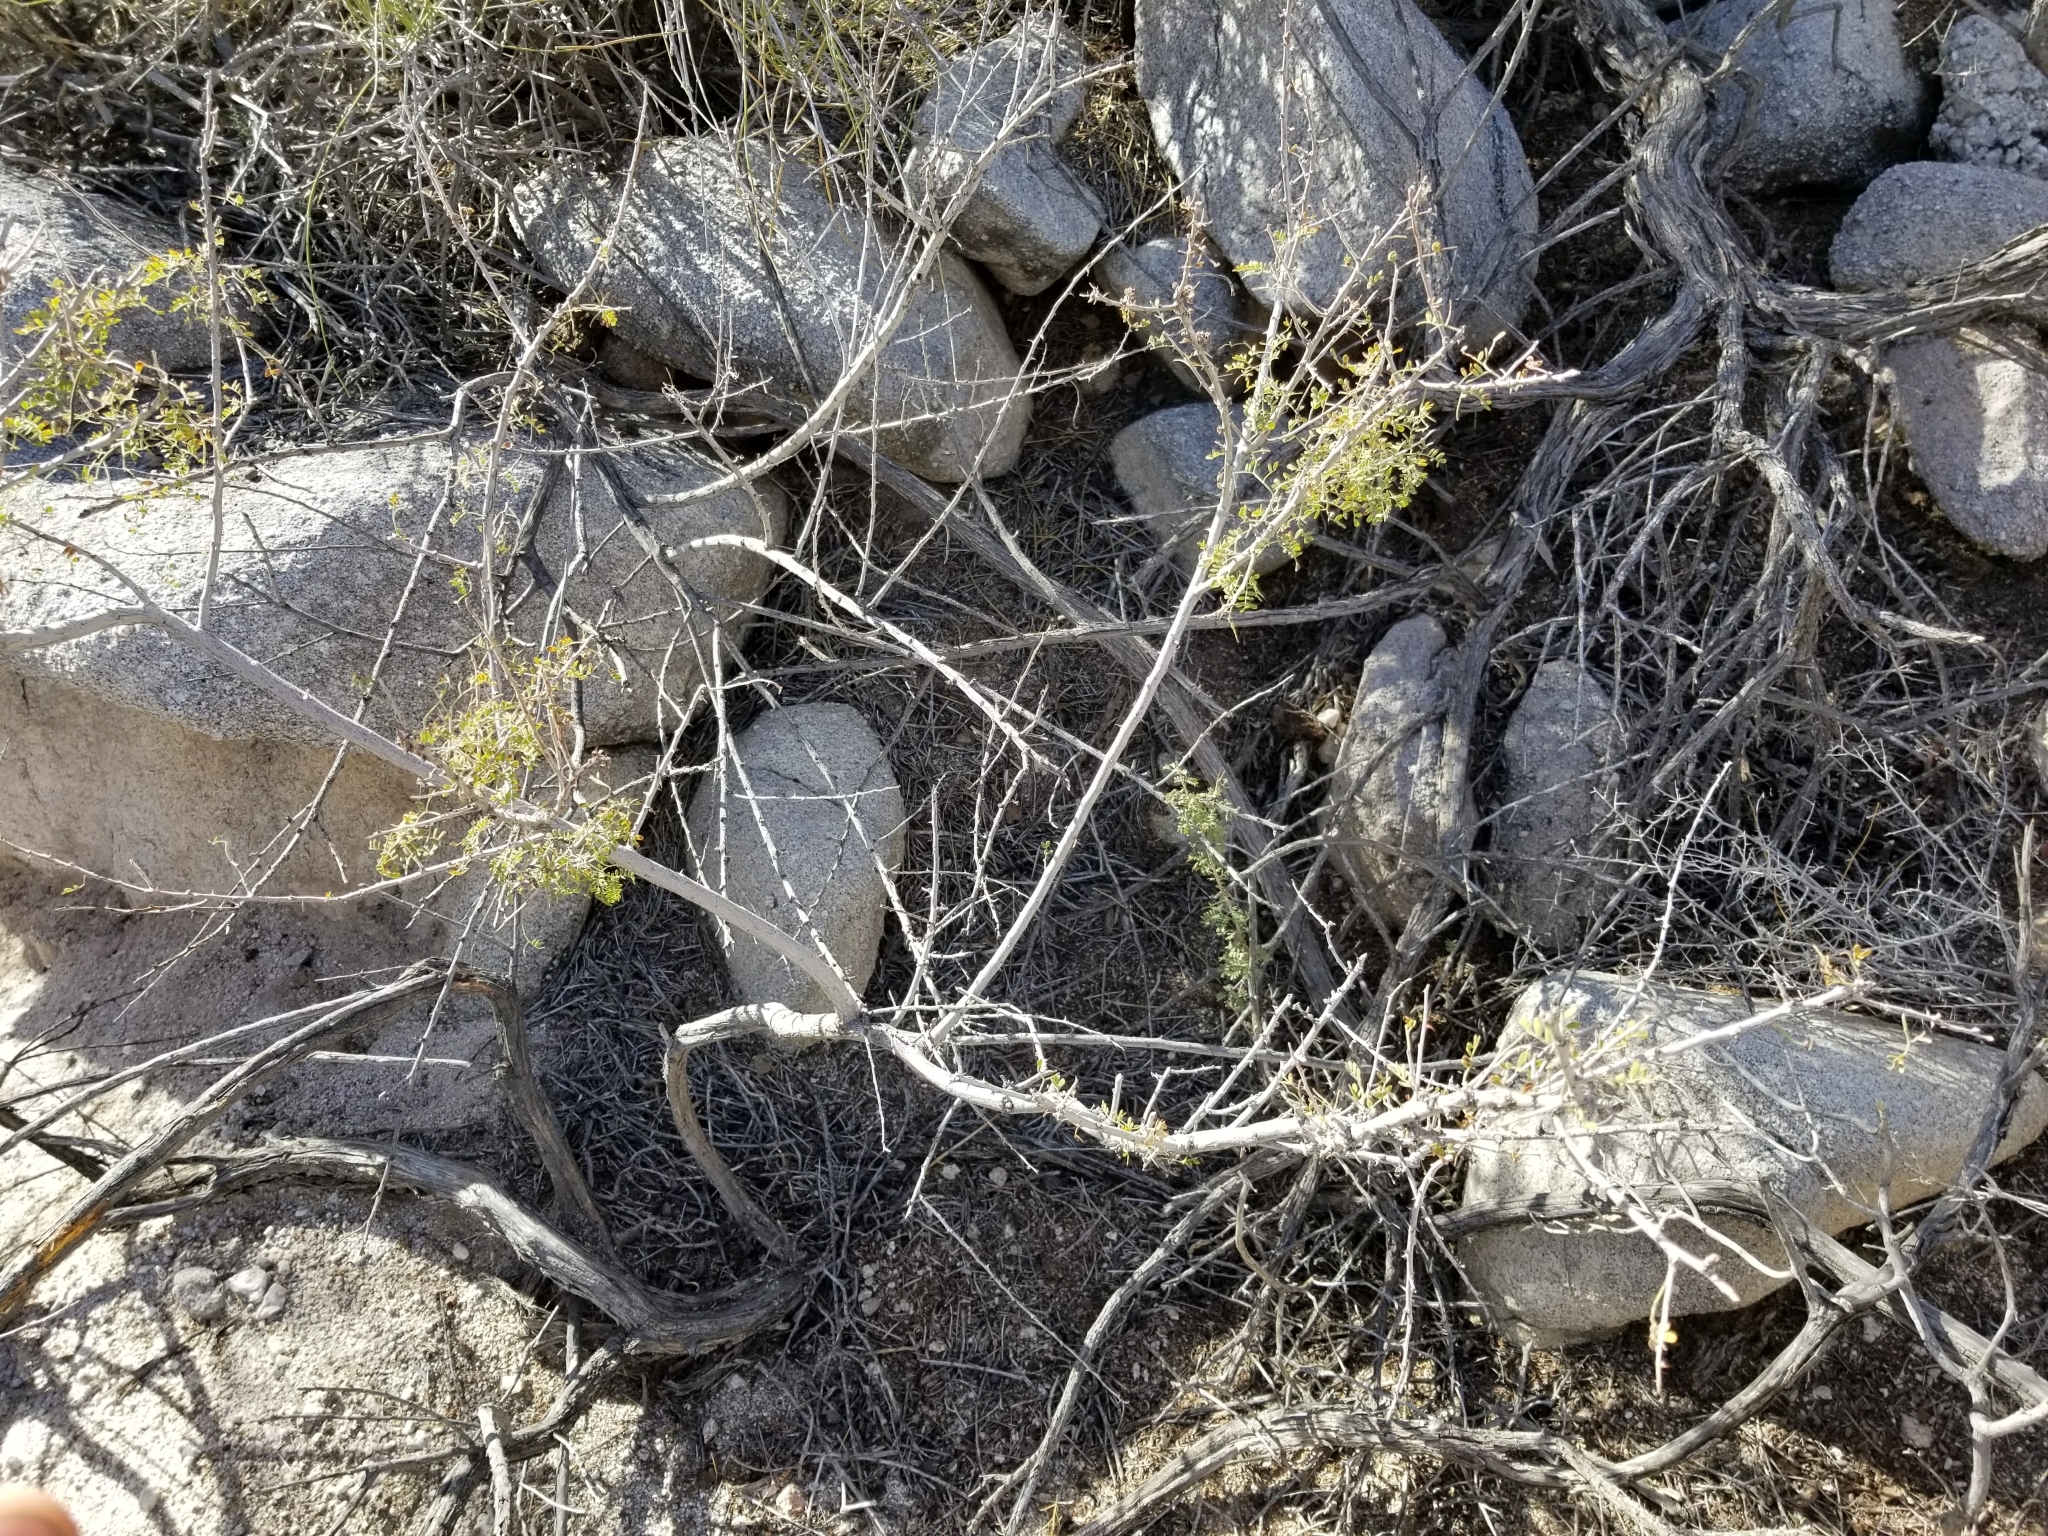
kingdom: Plantae
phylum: Tracheophyta
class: Magnoliopsida
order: Fabales
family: Fabaceae
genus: Senegalia
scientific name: Senegalia greggii
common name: Texas-mimosa
